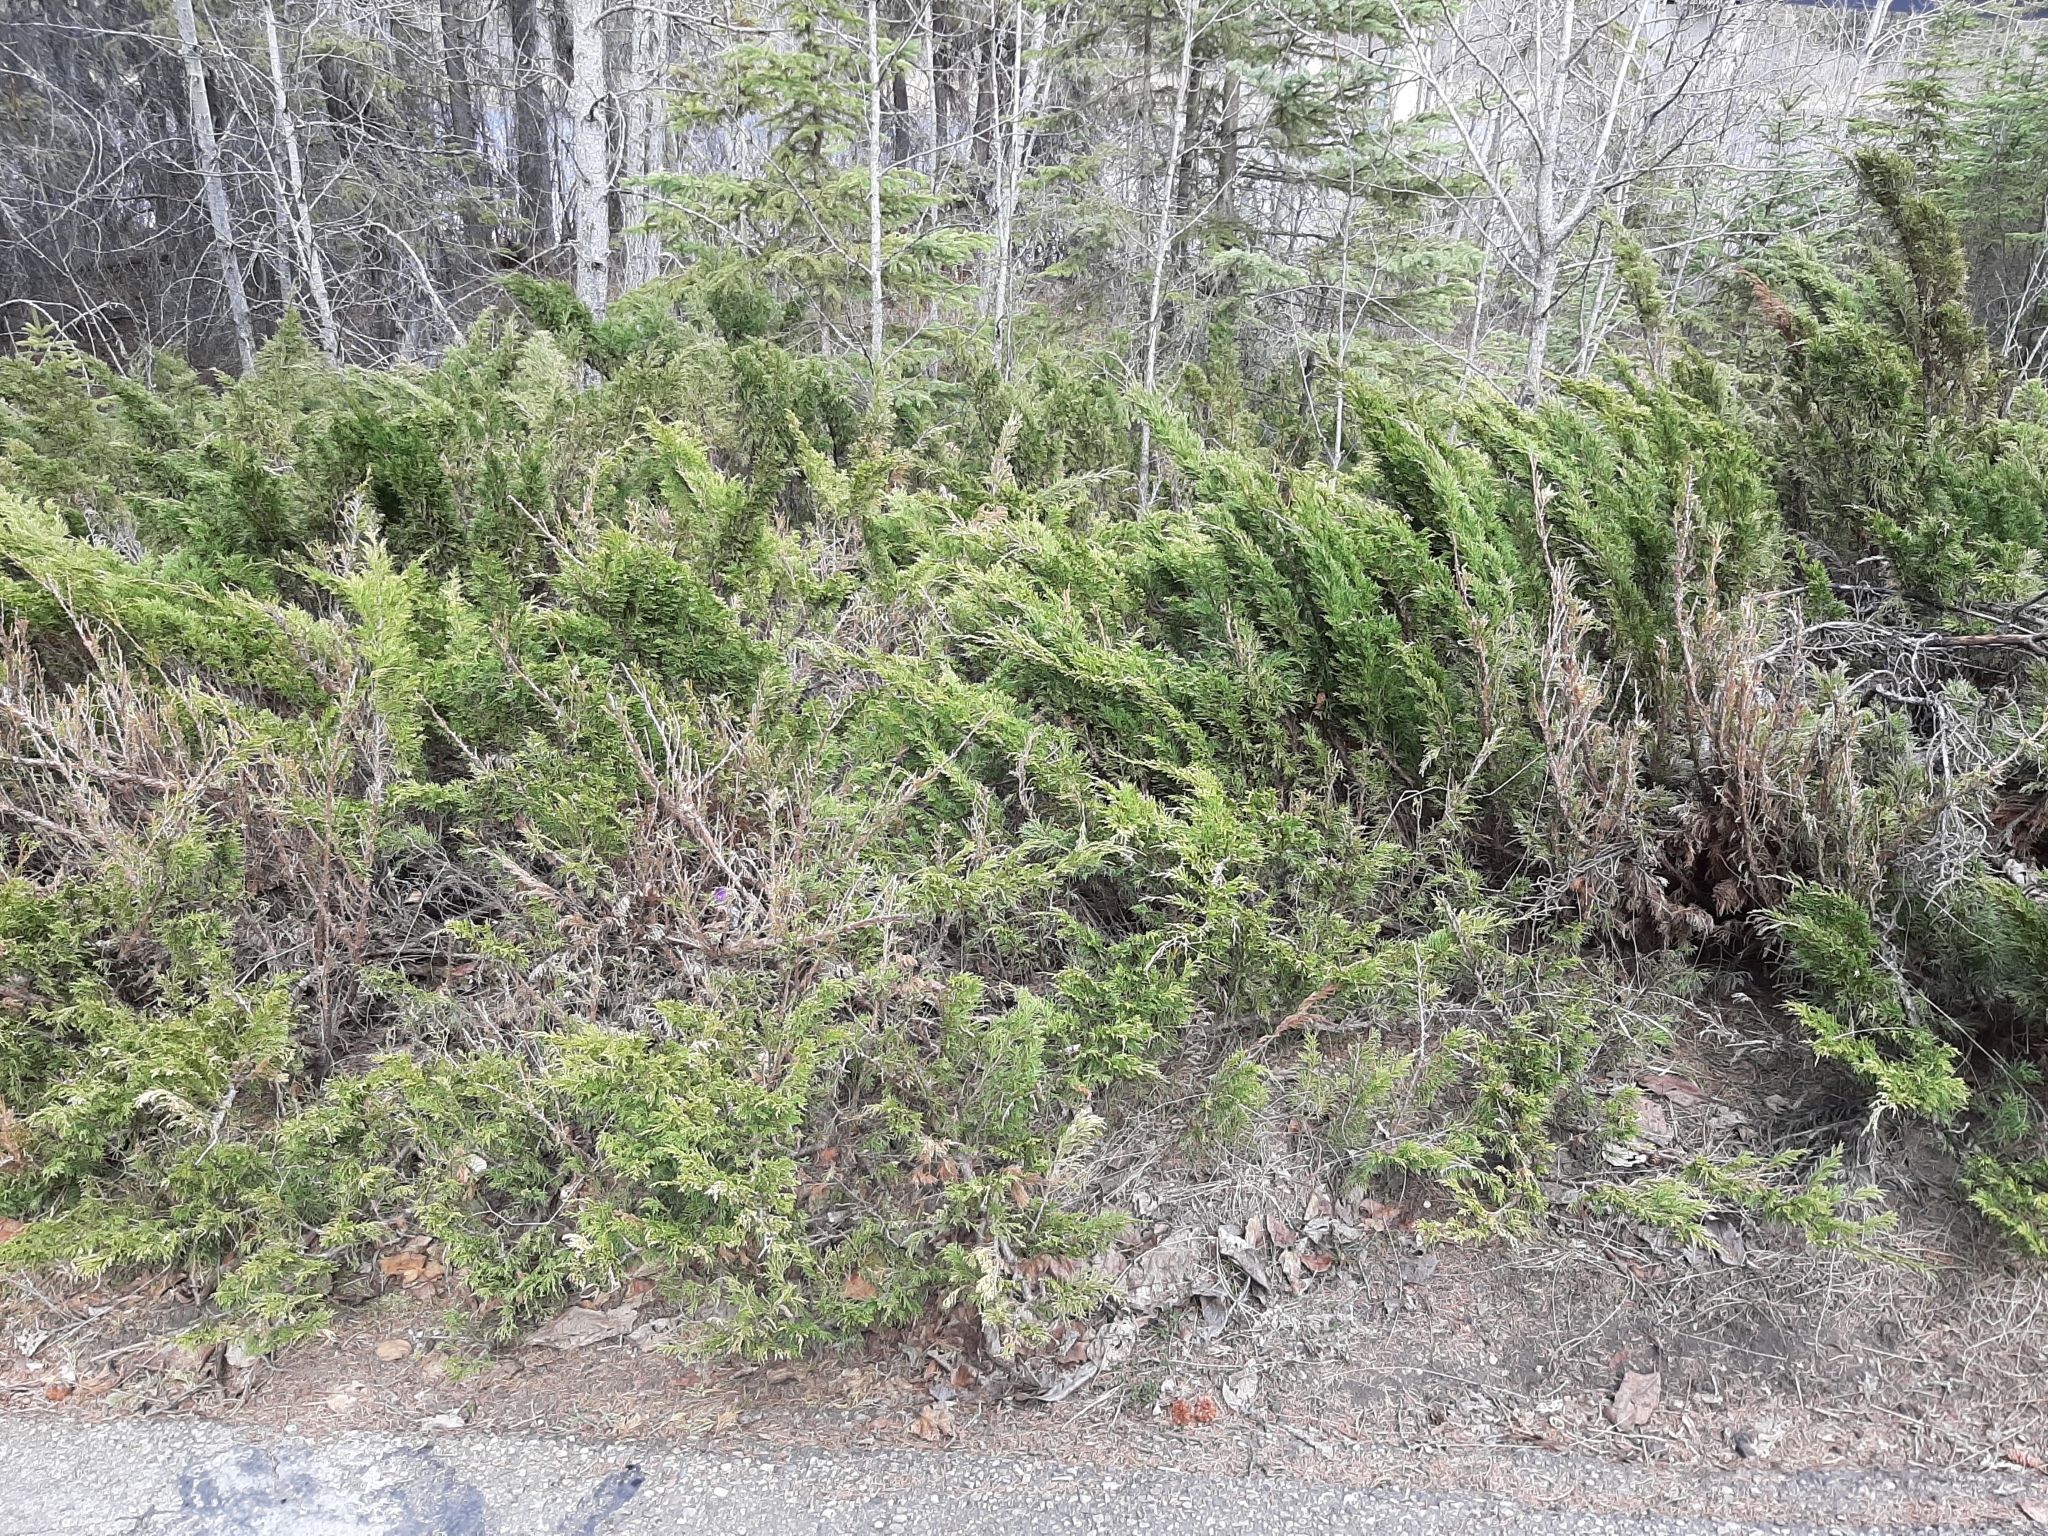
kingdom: Plantae
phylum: Tracheophyta
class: Pinopsida
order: Pinales
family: Cupressaceae
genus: Juniperus
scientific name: Juniperus communis
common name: Common juniper
